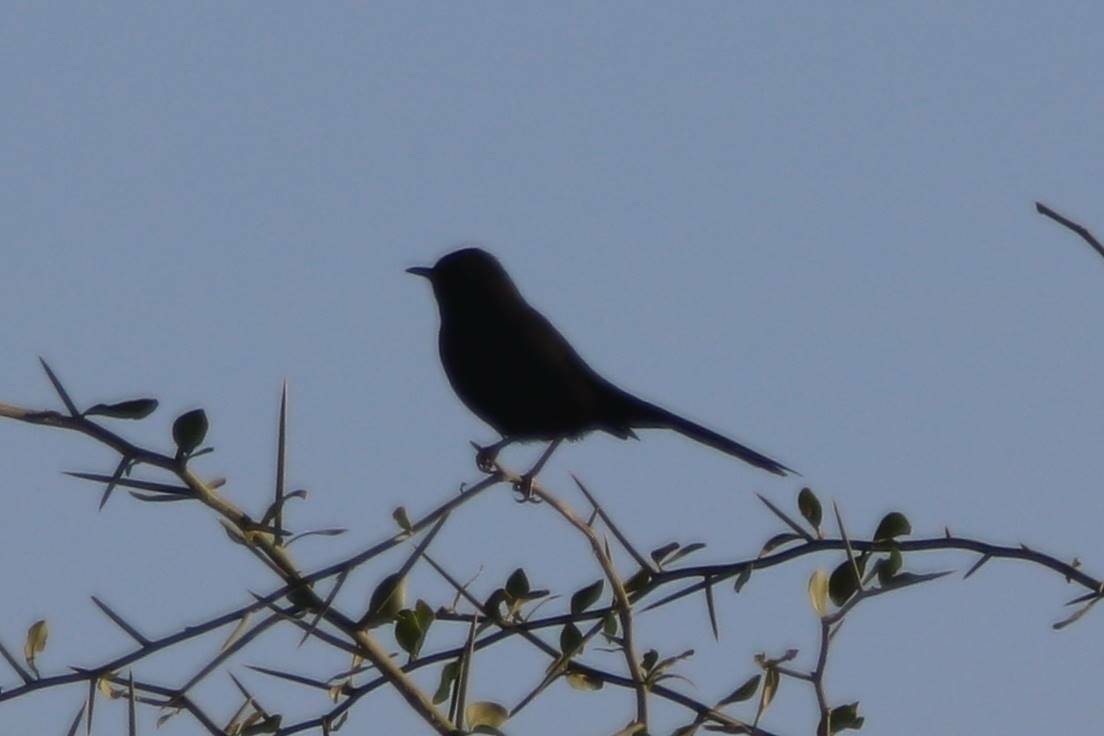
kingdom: Animalia
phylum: Chordata
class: Aves
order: Passeriformes
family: Muscicapidae
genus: Cercotrichas
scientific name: Cercotrichas podobe
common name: Black scrub robin
